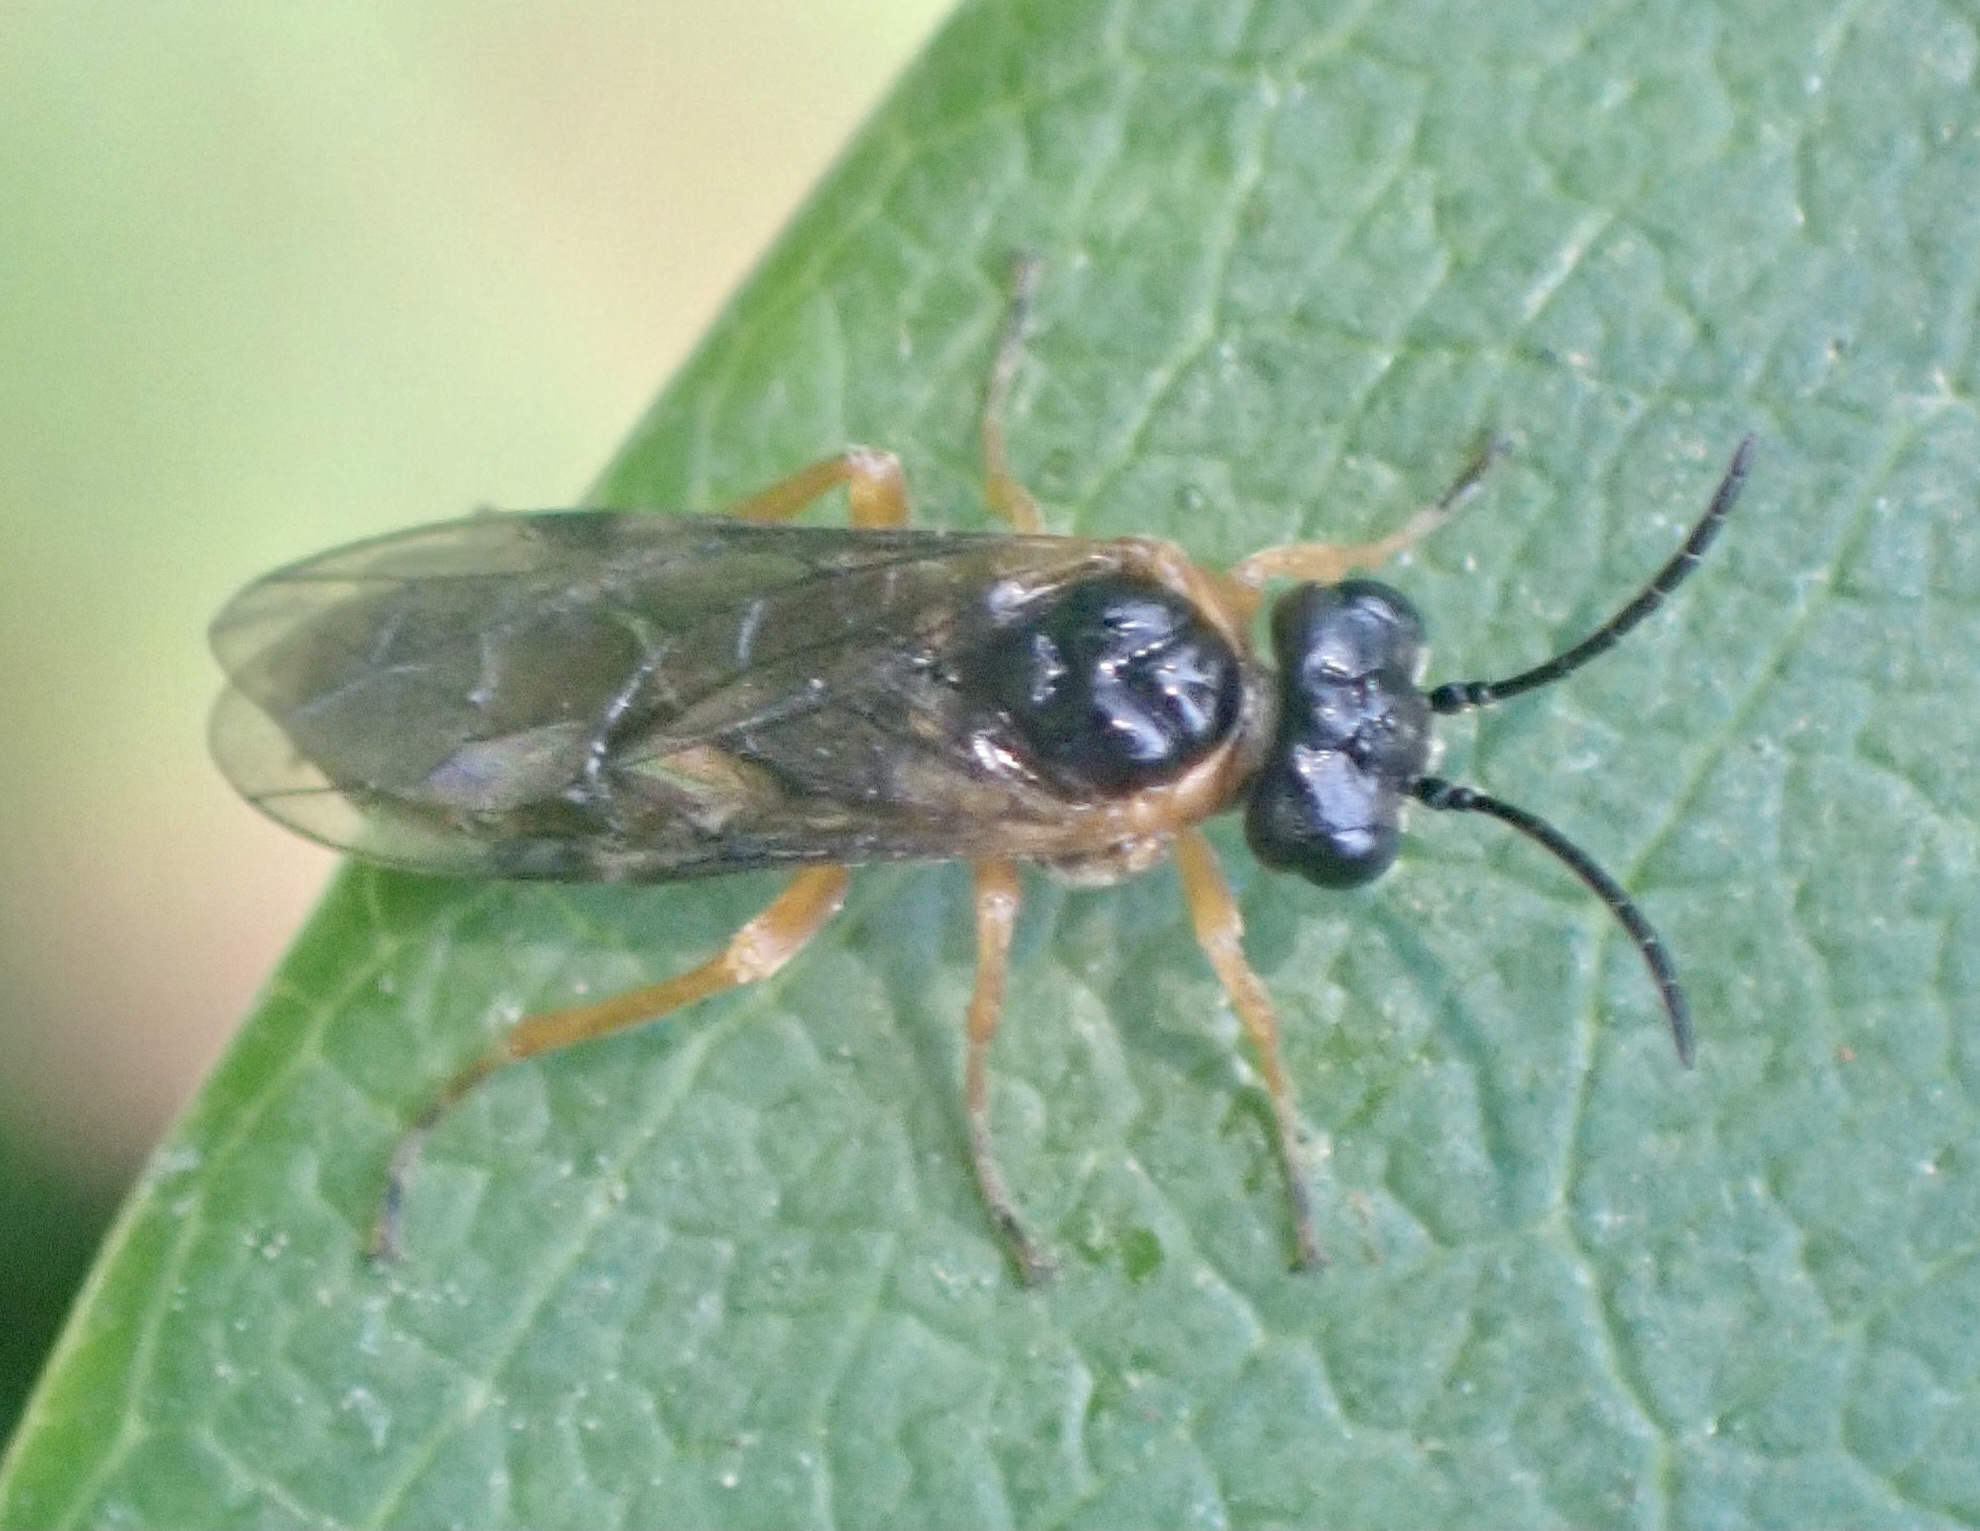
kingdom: Animalia
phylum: Arthropoda
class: Insecta
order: Hymenoptera
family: Tenthredinidae
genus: Monostegia
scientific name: Monostegia abdominalis
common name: Tenthredid wasp
